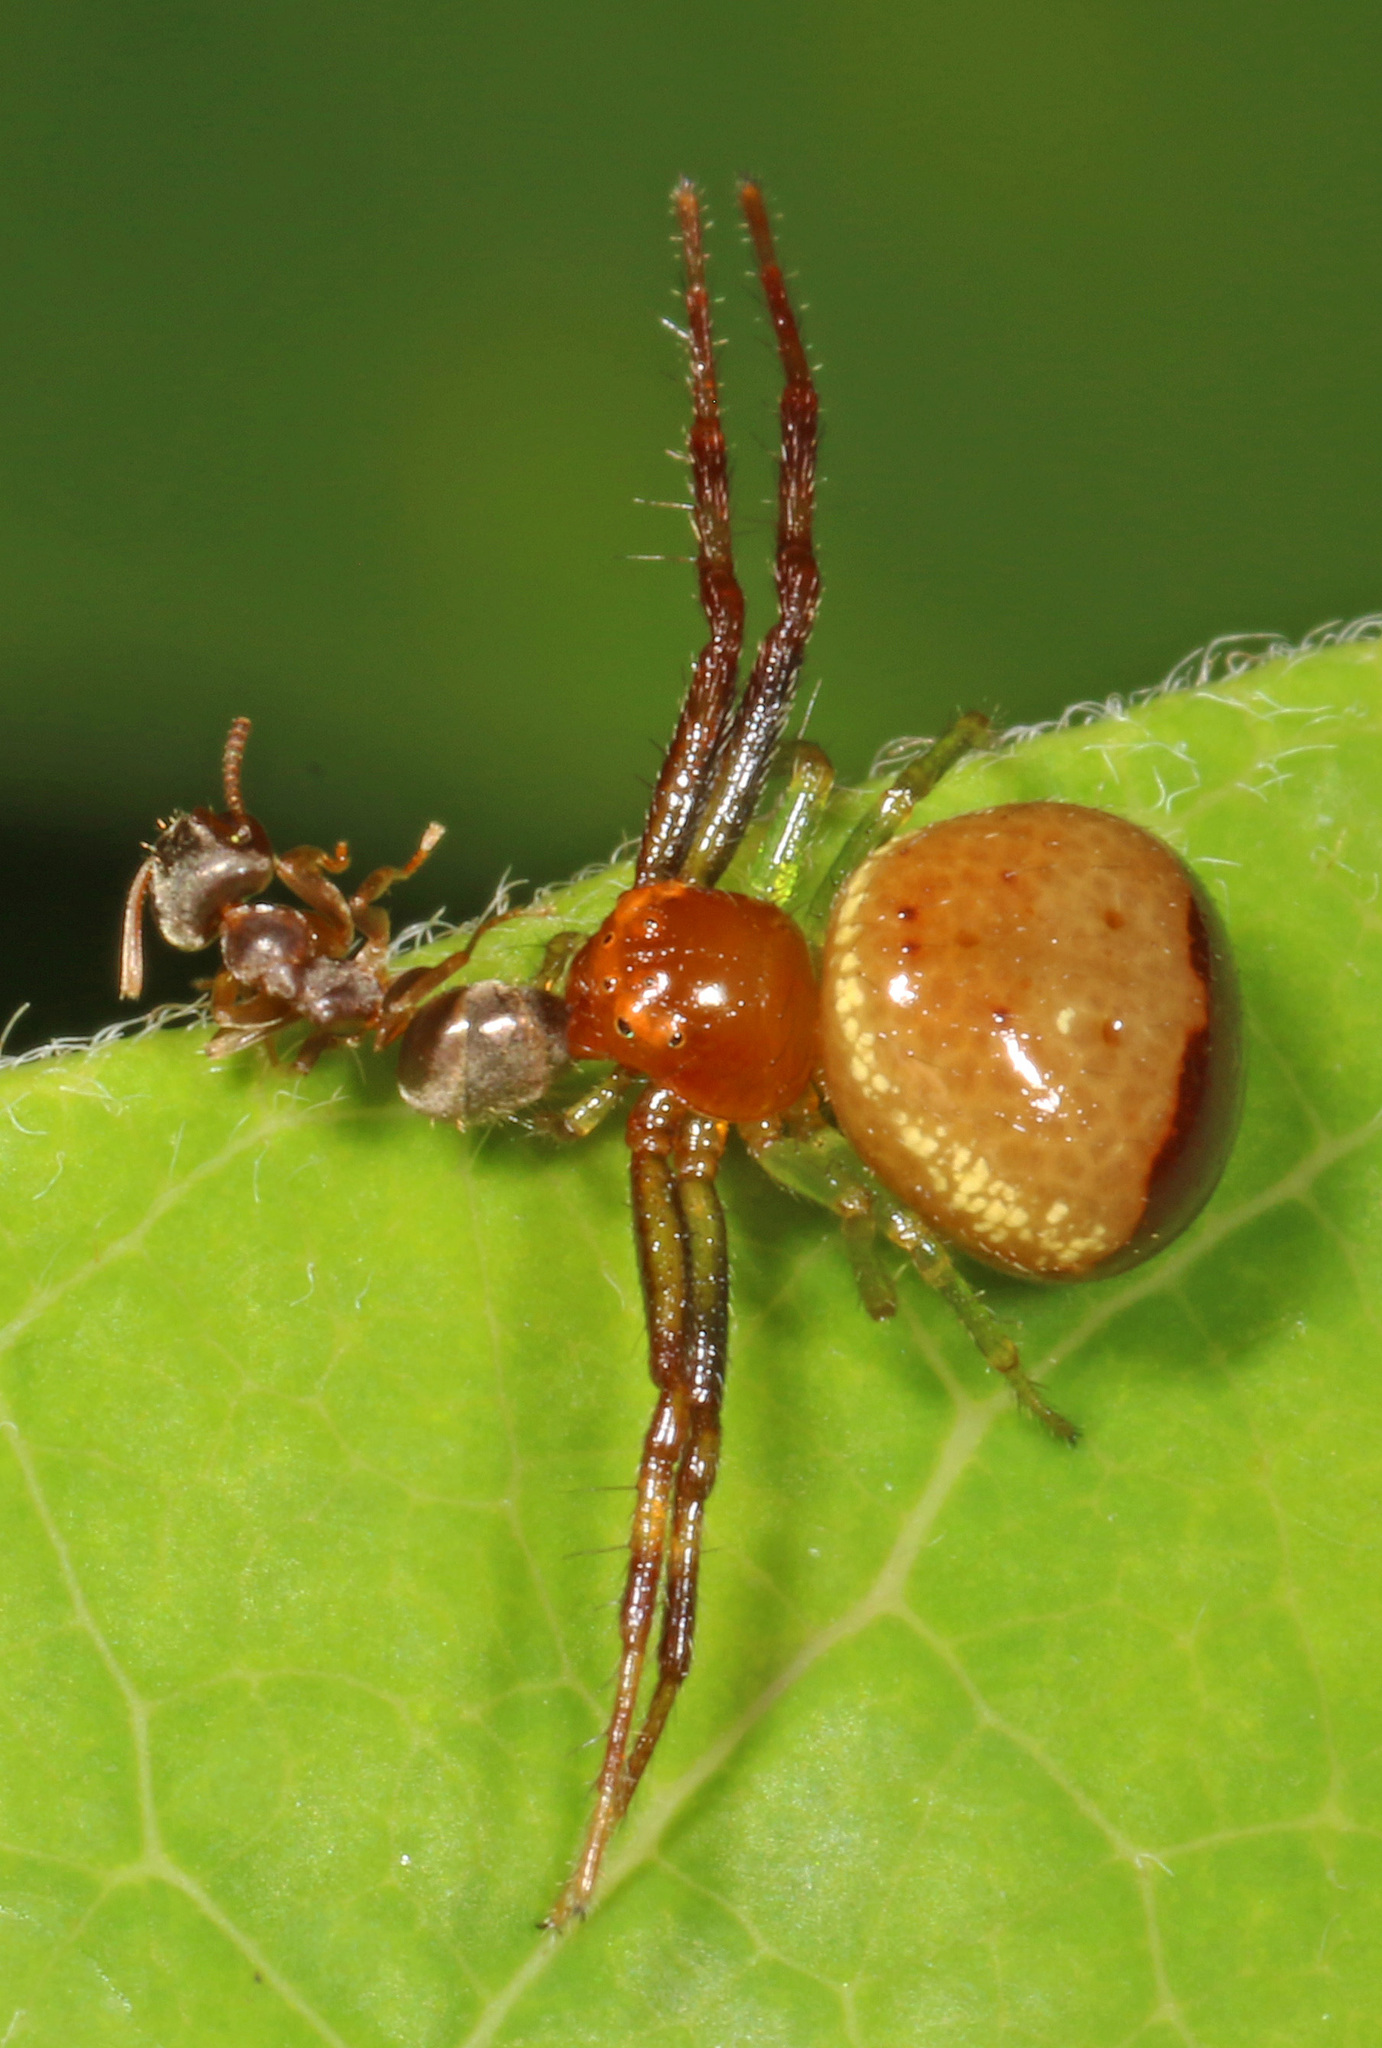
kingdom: Animalia
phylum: Arthropoda
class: Arachnida
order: Araneae
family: Thomisidae
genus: Synema
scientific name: Synema parvulum
